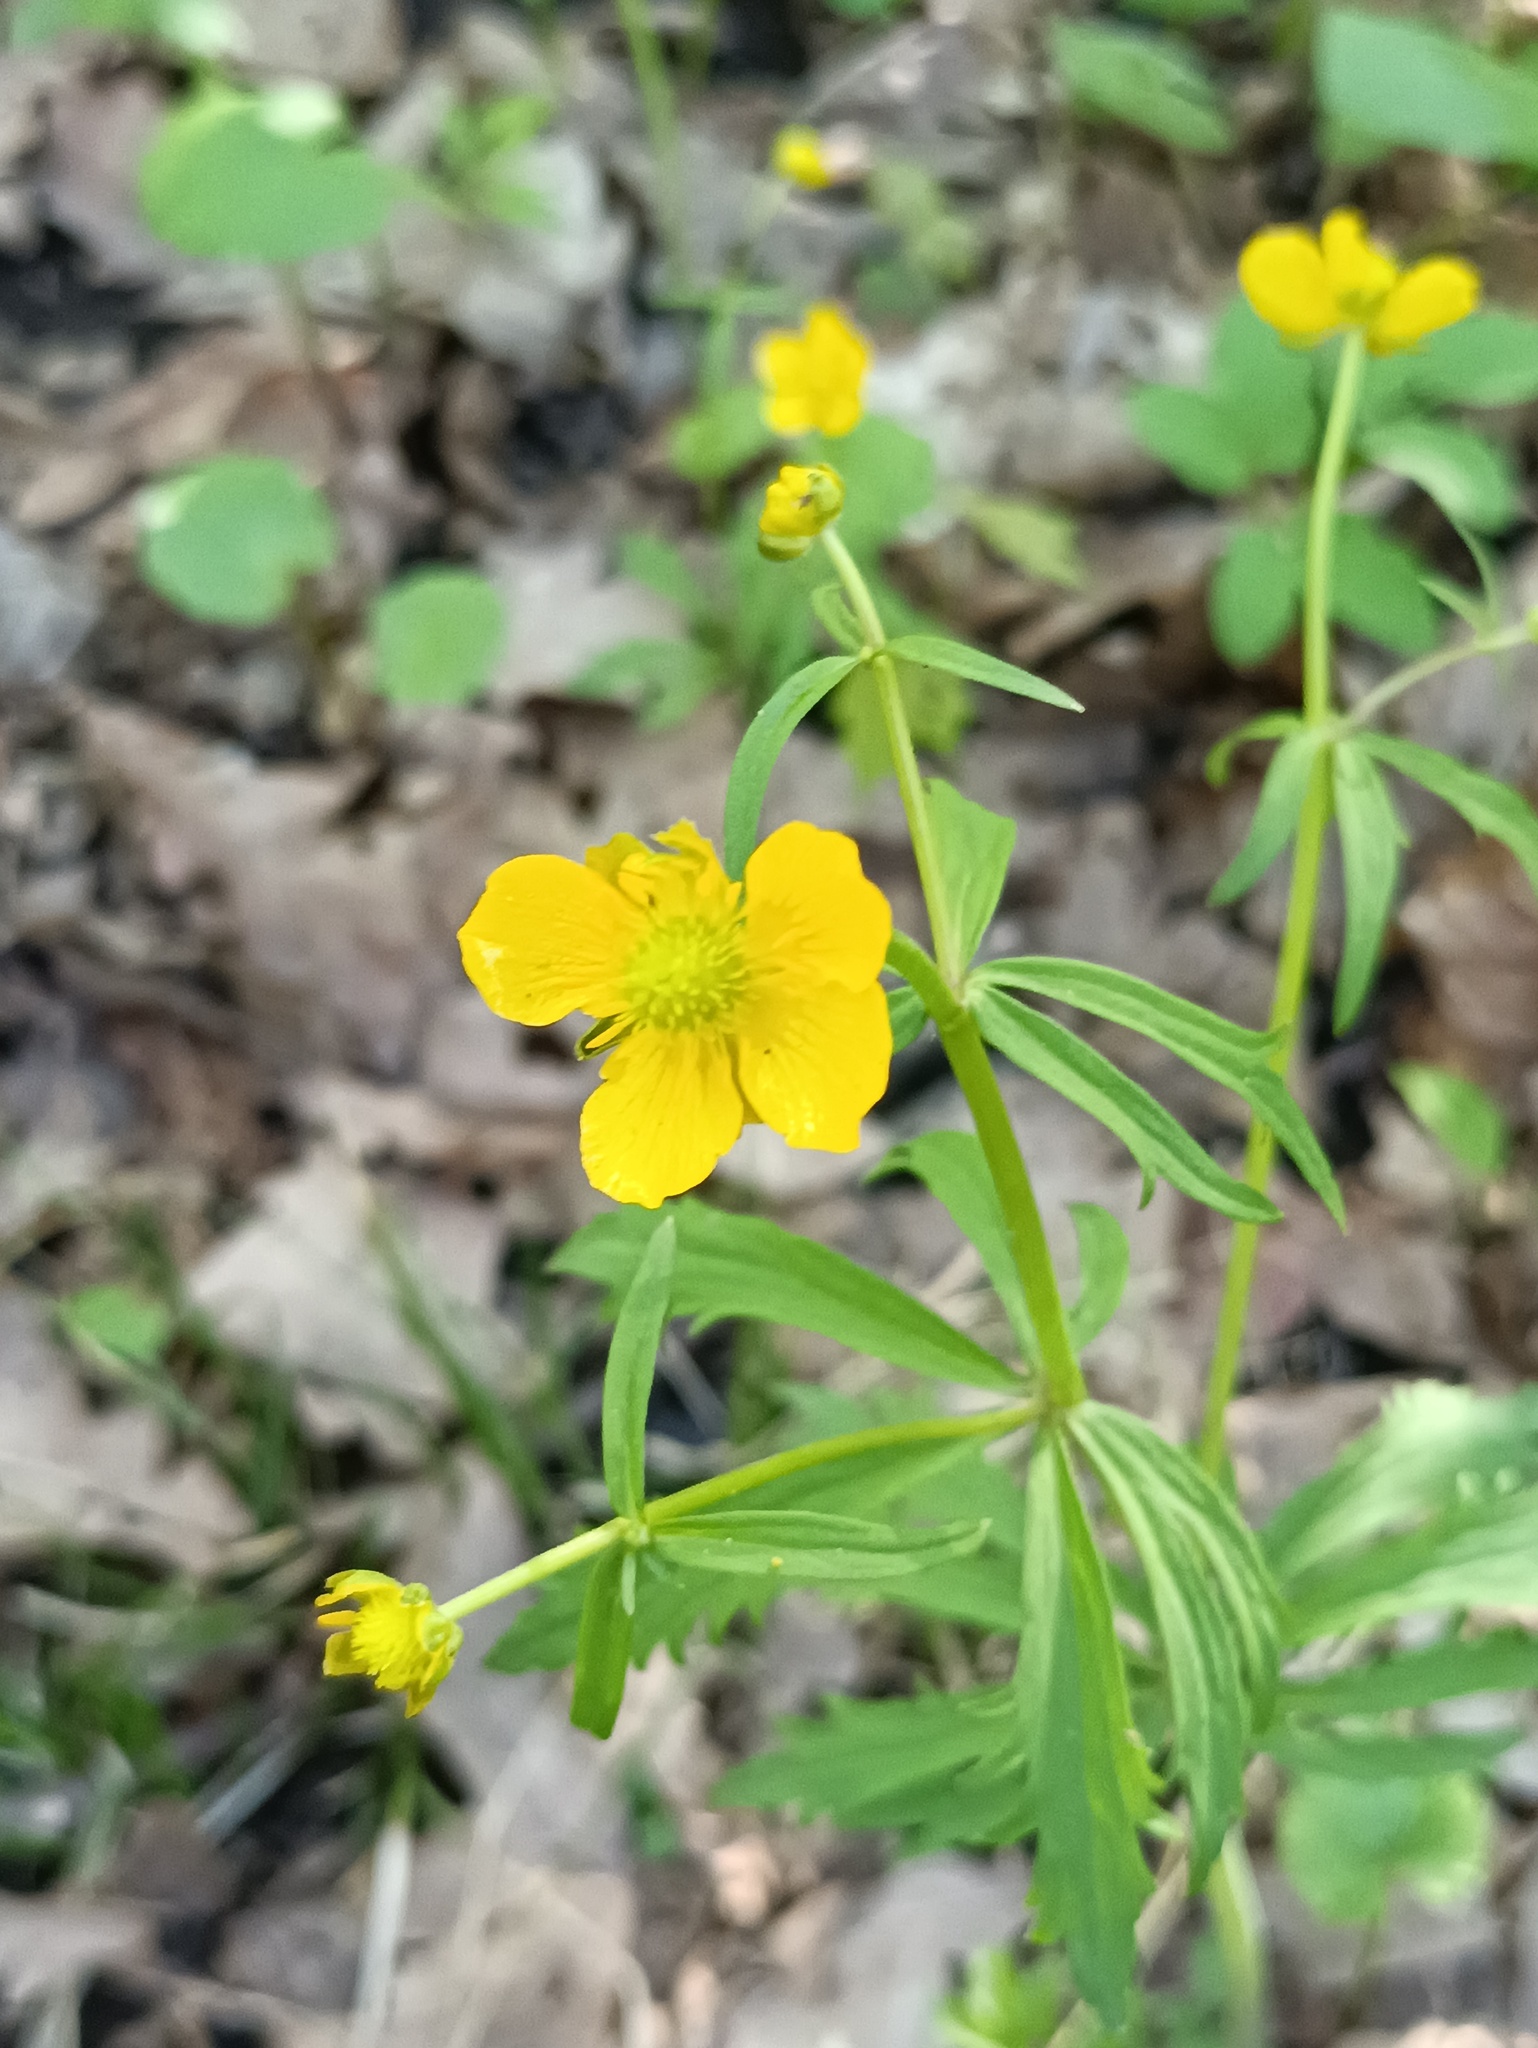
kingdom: Plantae
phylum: Tracheophyta
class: Magnoliopsida
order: Ranunculales
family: Ranunculaceae
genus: Ranunculus
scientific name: Ranunculus cassubicus
